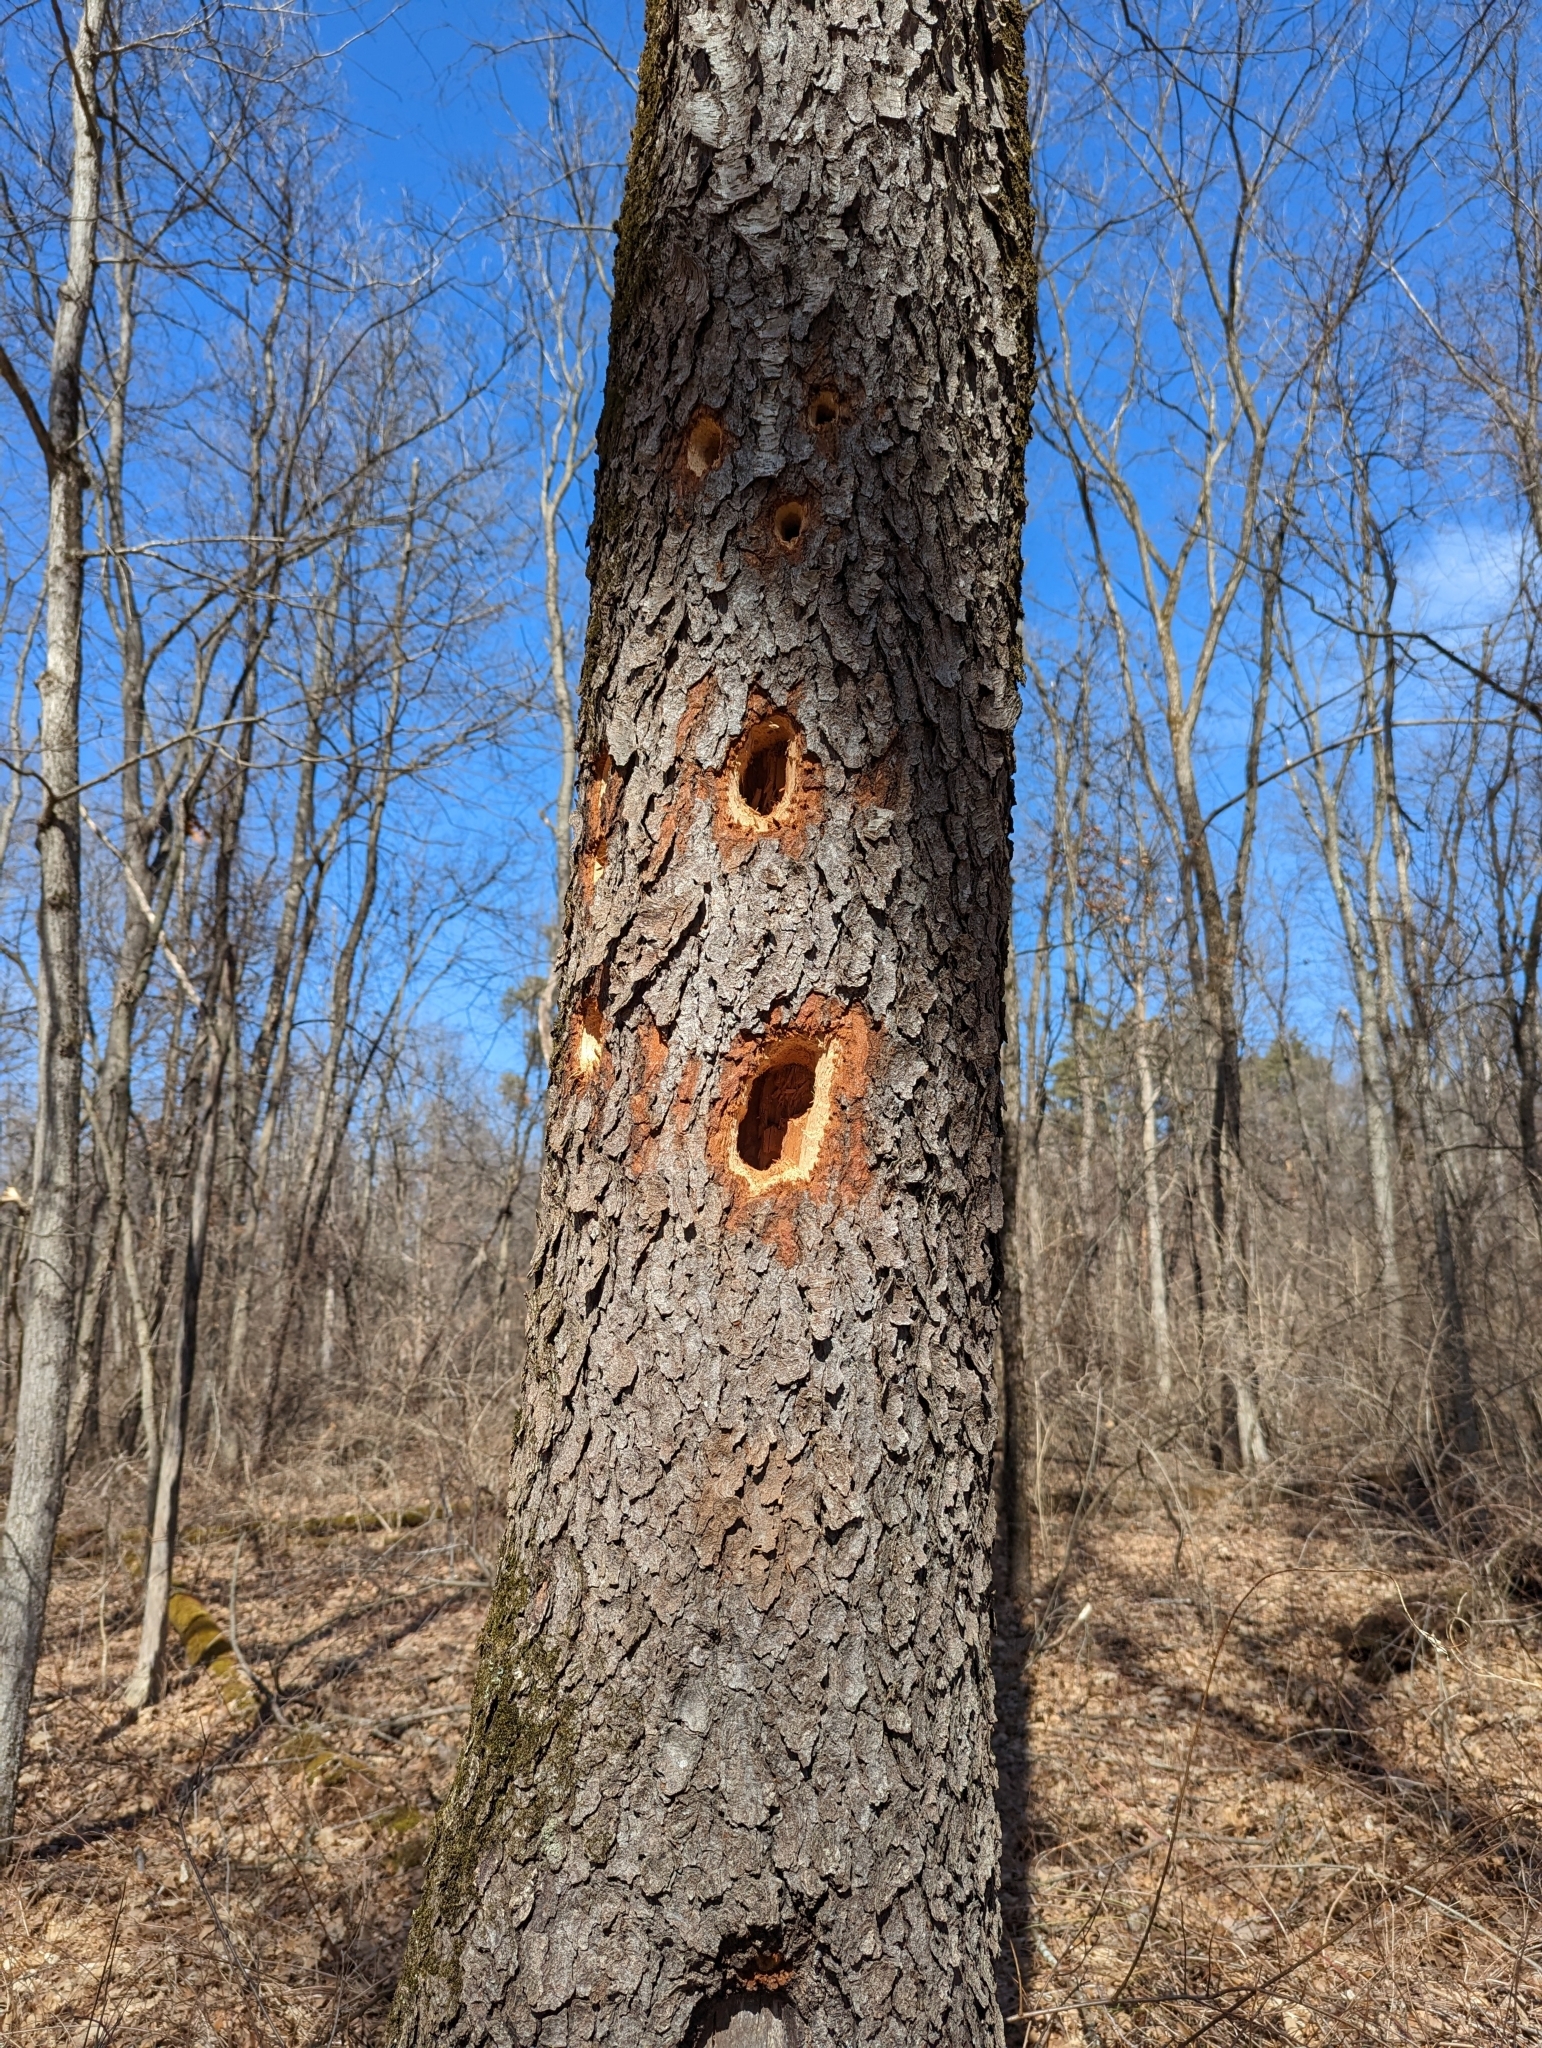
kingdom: Animalia
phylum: Chordata
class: Aves
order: Piciformes
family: Picidae
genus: Dryocopus
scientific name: Dryocopus pileatus
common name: Pileated woodpecker
